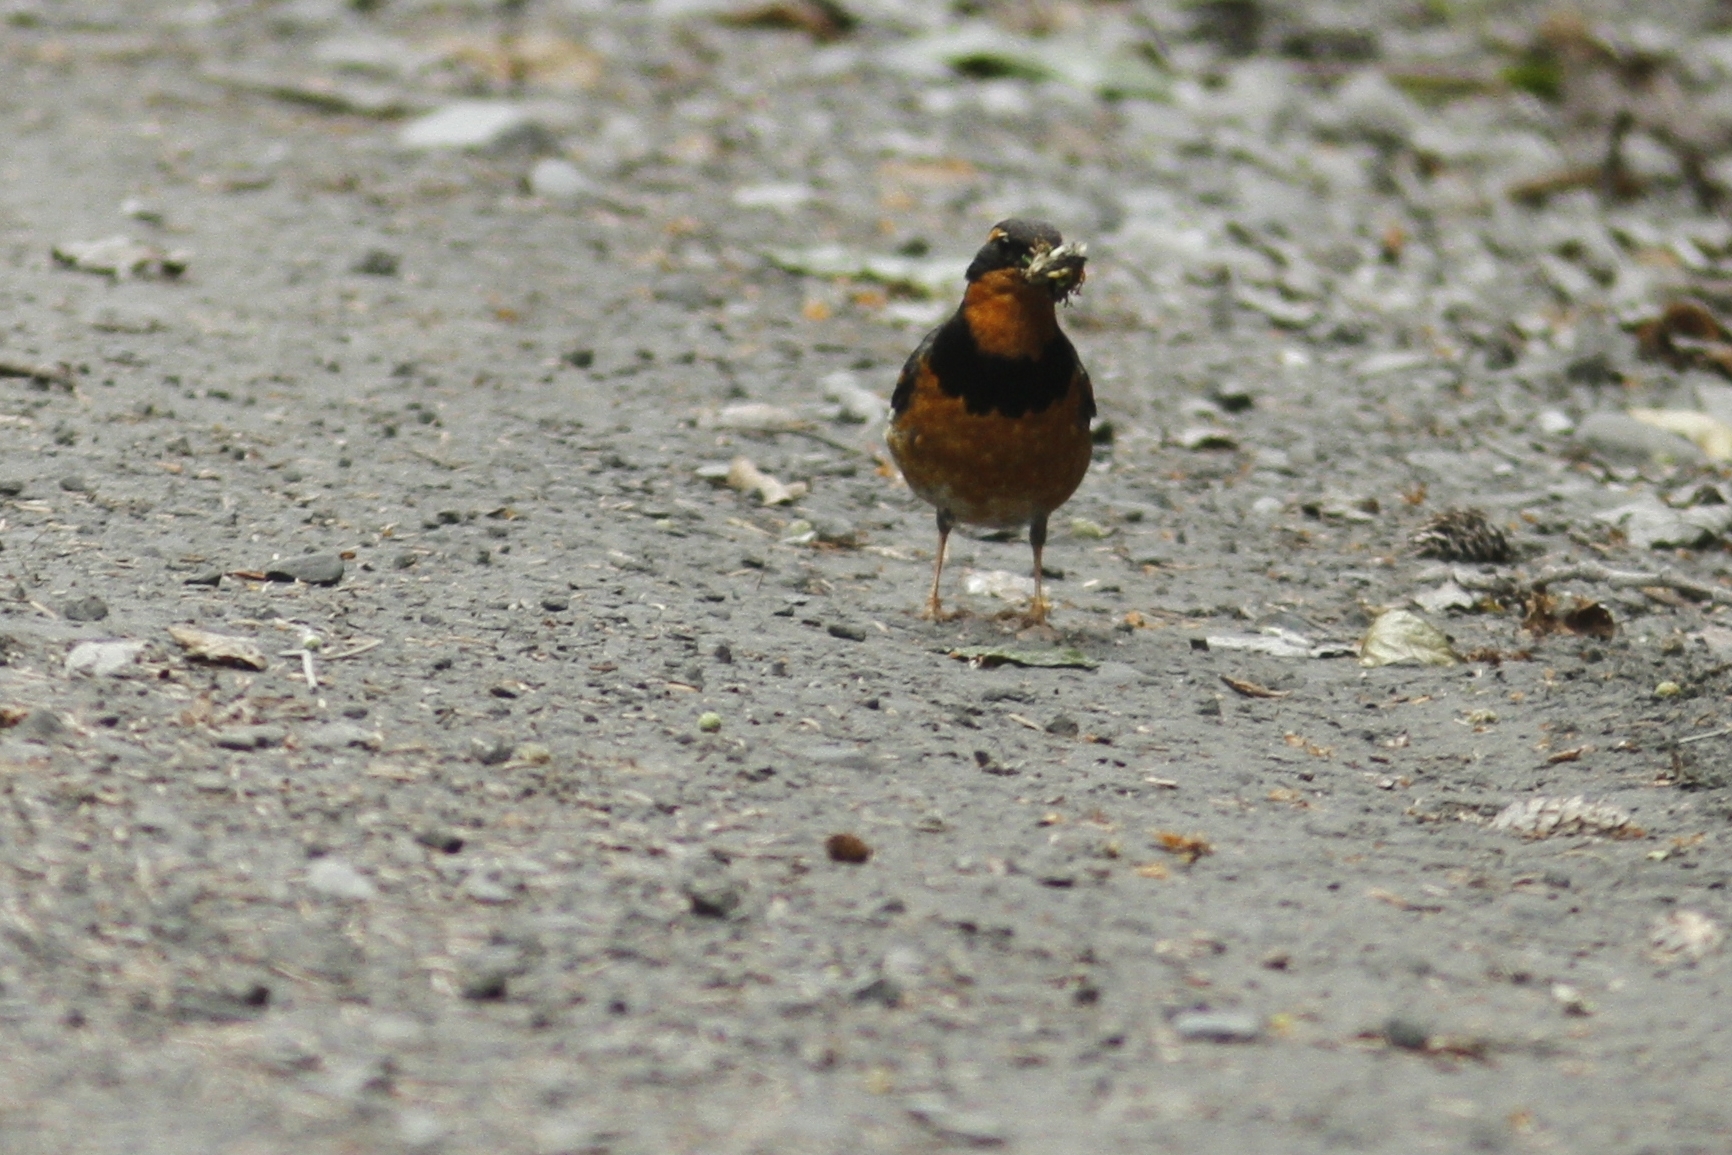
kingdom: Animalia
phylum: Chordata
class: Aves
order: Passeriformes
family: Turdidae
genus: Ixoreus
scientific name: Ixoreus naevius
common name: Varied thrush
